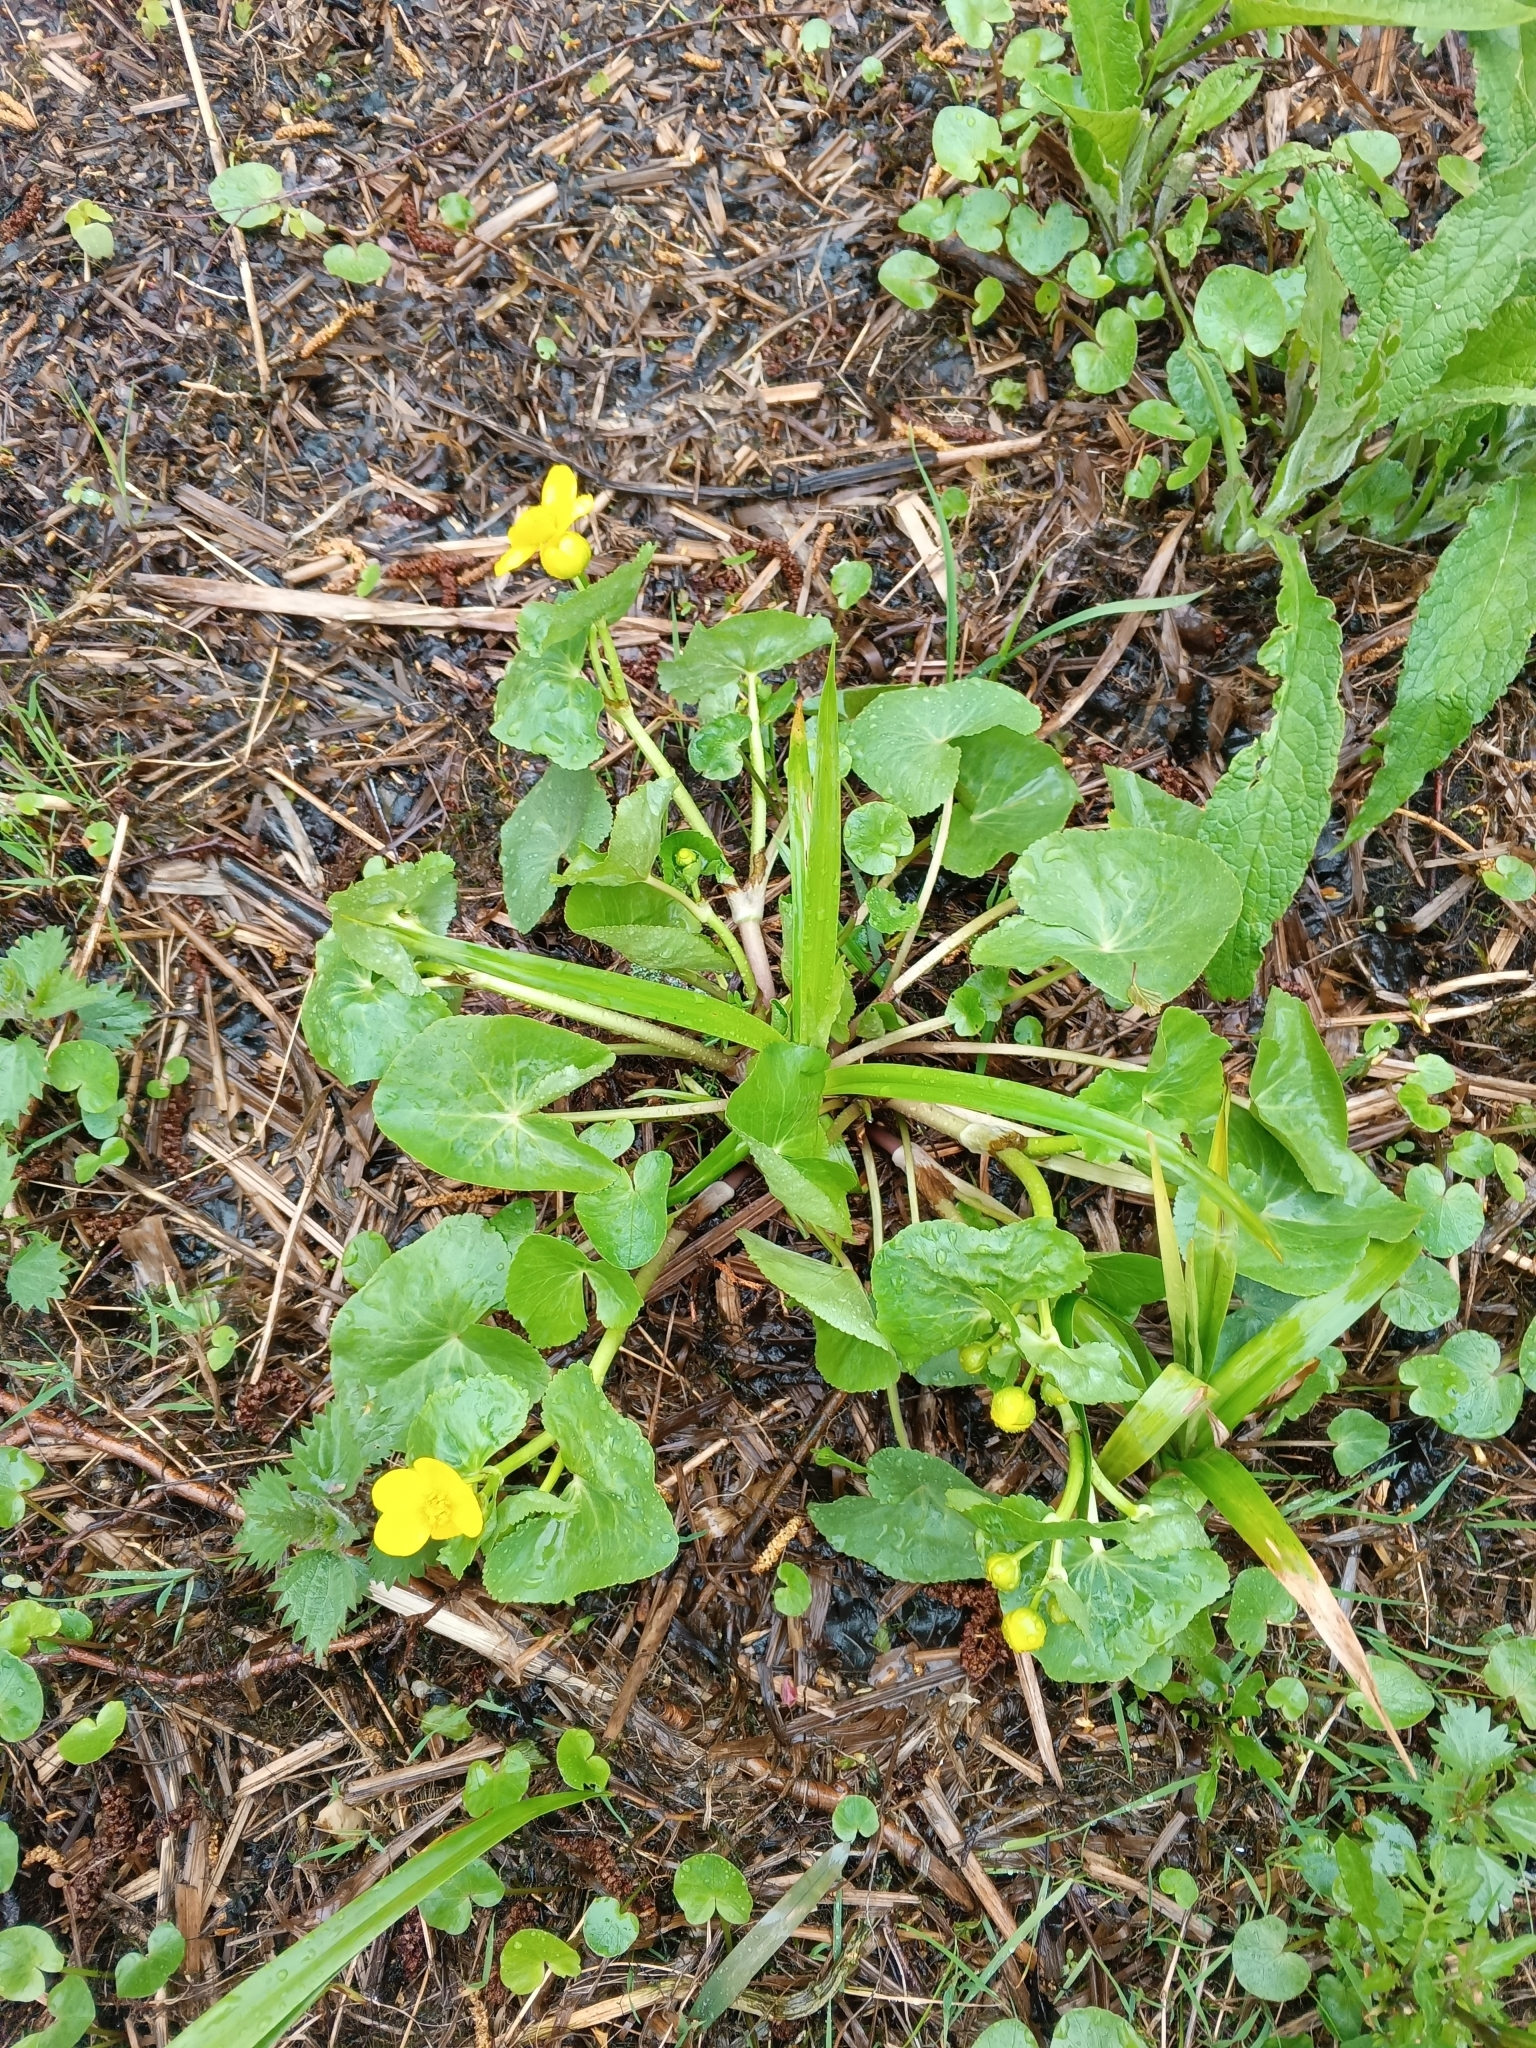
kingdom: Plantae
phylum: Tracheophyta
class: Magnoliopsida
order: Ranunculales
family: Ranunculaceae
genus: Caltha
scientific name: Caltha palustris
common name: Marsh marigold
